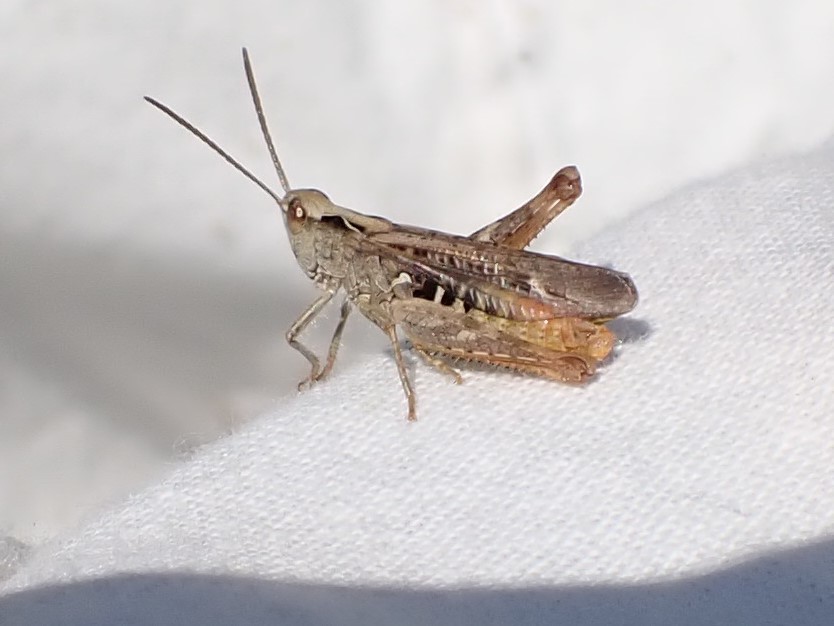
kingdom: Animalia
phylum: Arthropoda
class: Insecta
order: Orthoptera
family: Acrididae
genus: Chorthippus
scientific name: Chorthippus biguttulus
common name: Bow-winged grasshopper
